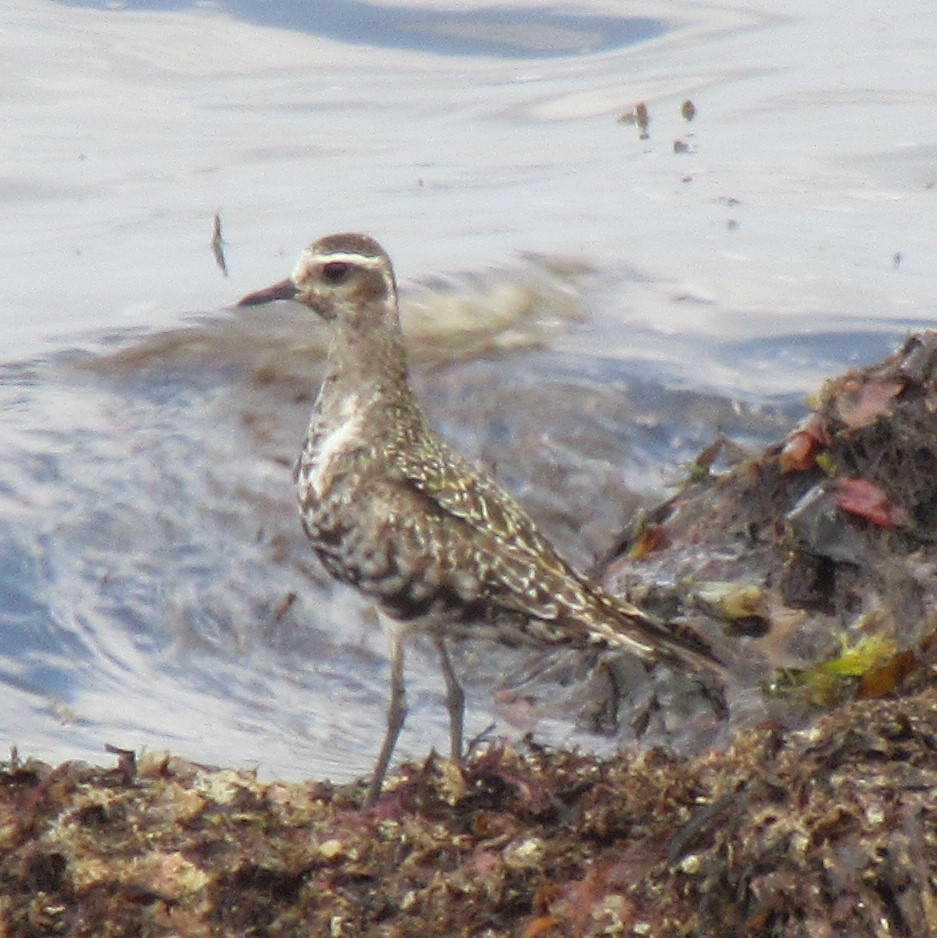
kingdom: Animalia
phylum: Chordata
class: Aves
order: Charadriiformes
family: Charadriidae
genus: Pluvialis
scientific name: Pluvialis dominica
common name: American golden plover
